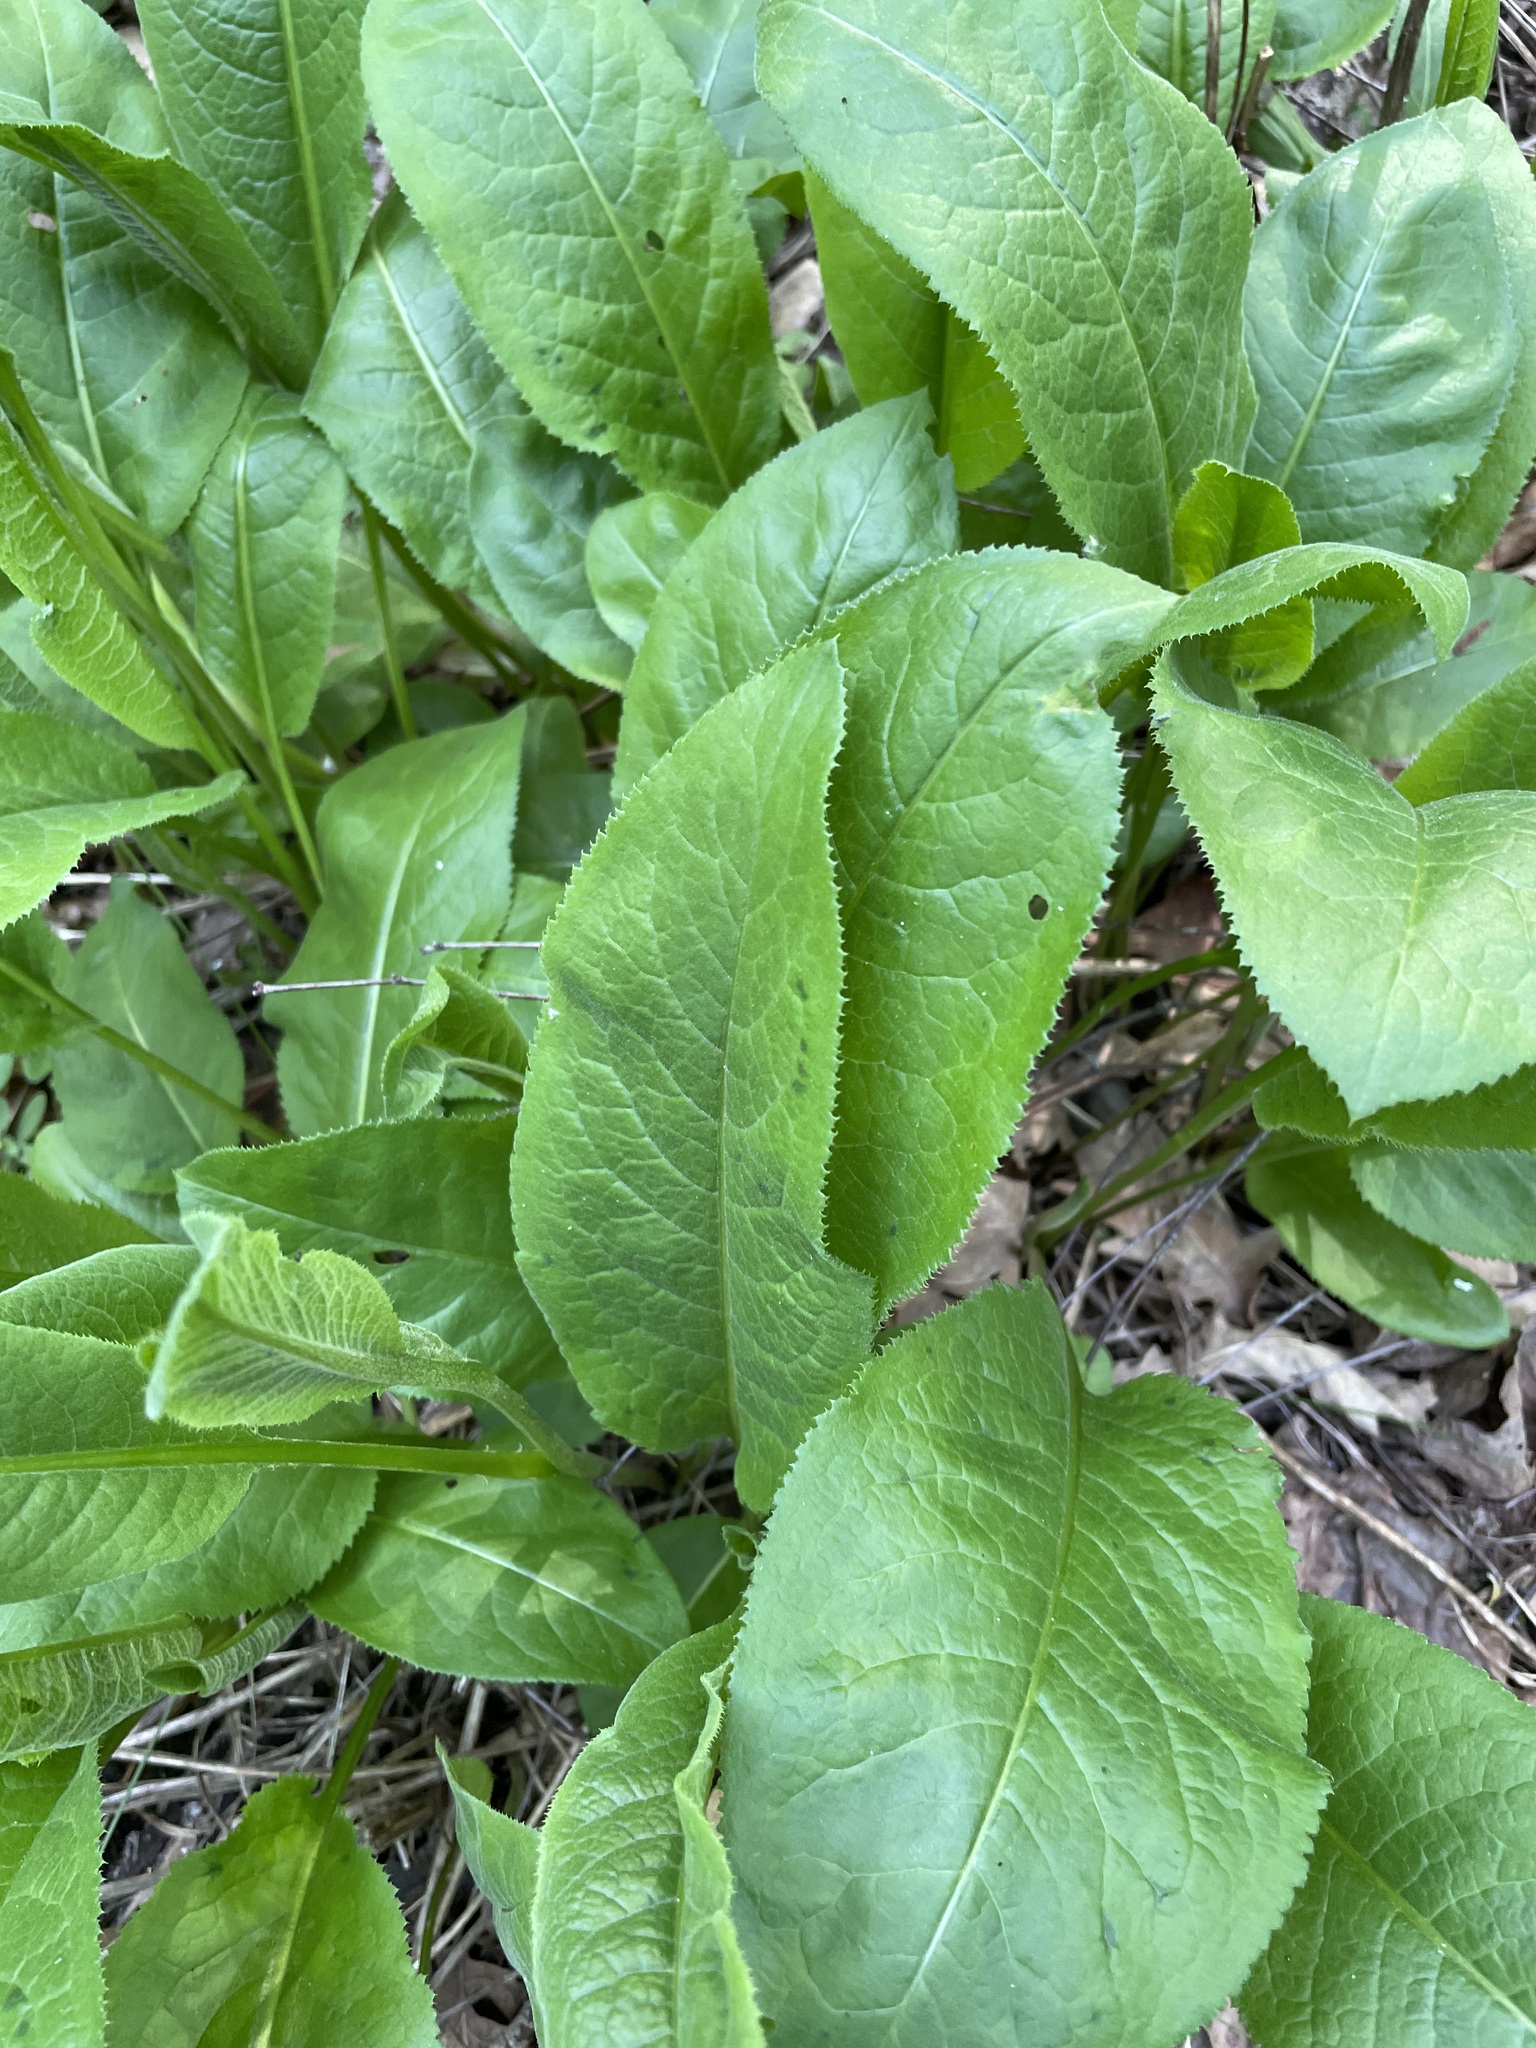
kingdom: Plantae
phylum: Tracheophyta
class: Magnoliopsida
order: Asterales
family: Asteraceae
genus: Serratula
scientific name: Serratula tinctoria
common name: Saw-wort
